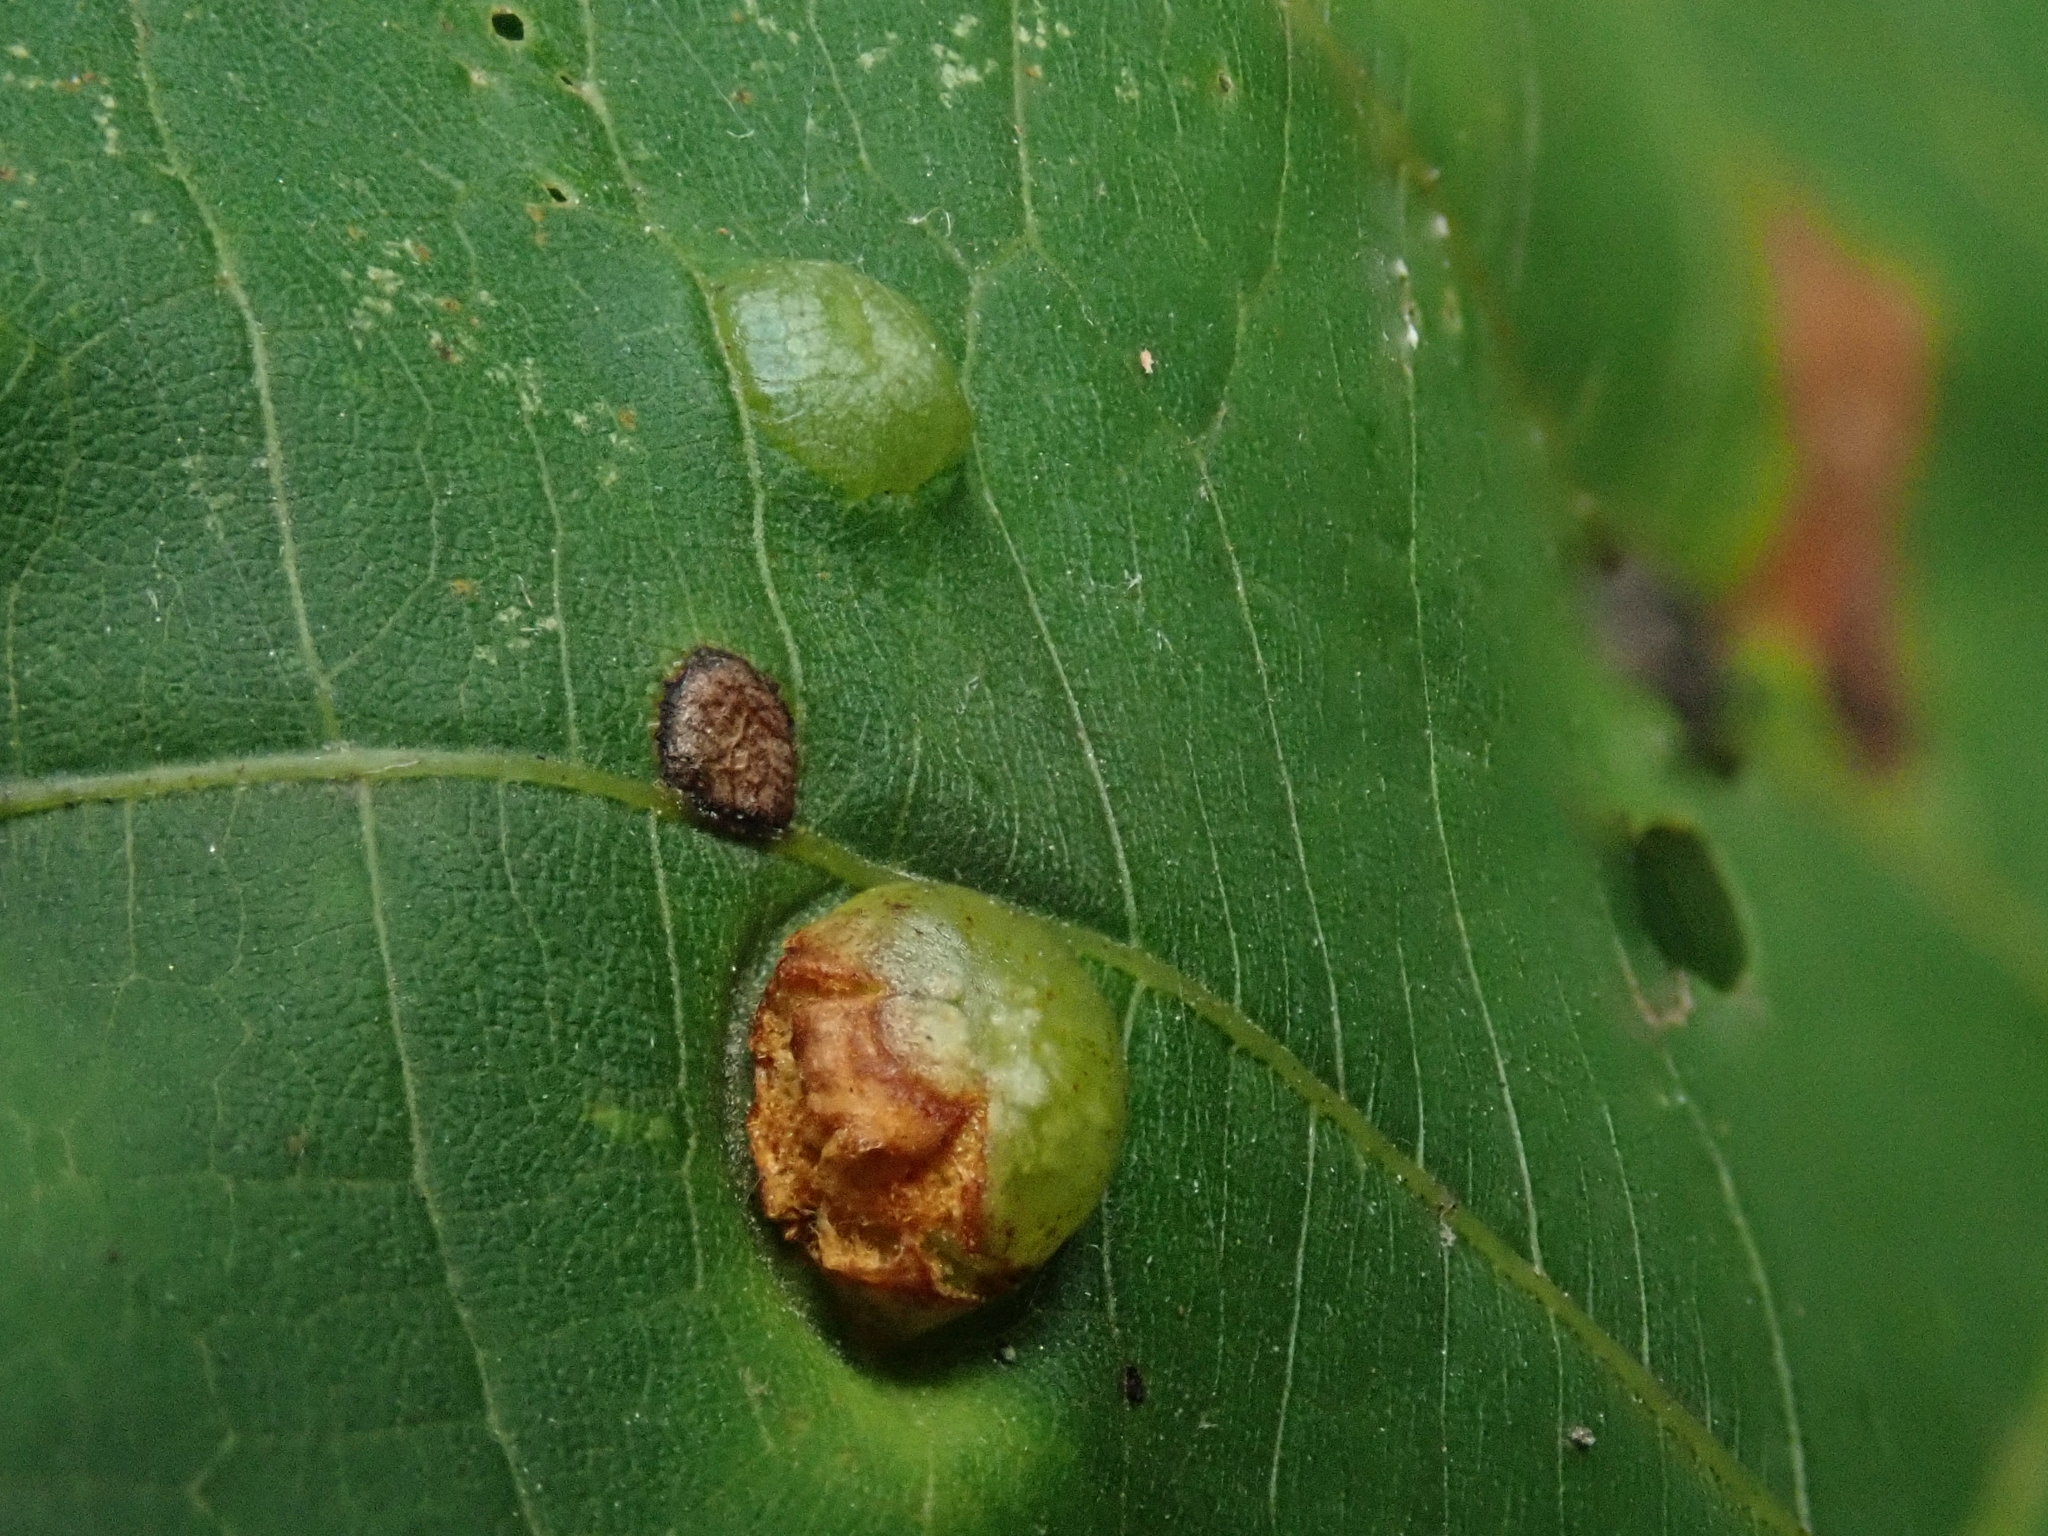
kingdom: Animalia
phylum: Arthropoda
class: Insecta
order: Diptera
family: Cecidomyiidae
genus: Contarinia
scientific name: Contarinia verrucicola
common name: Linden wart gall midge
